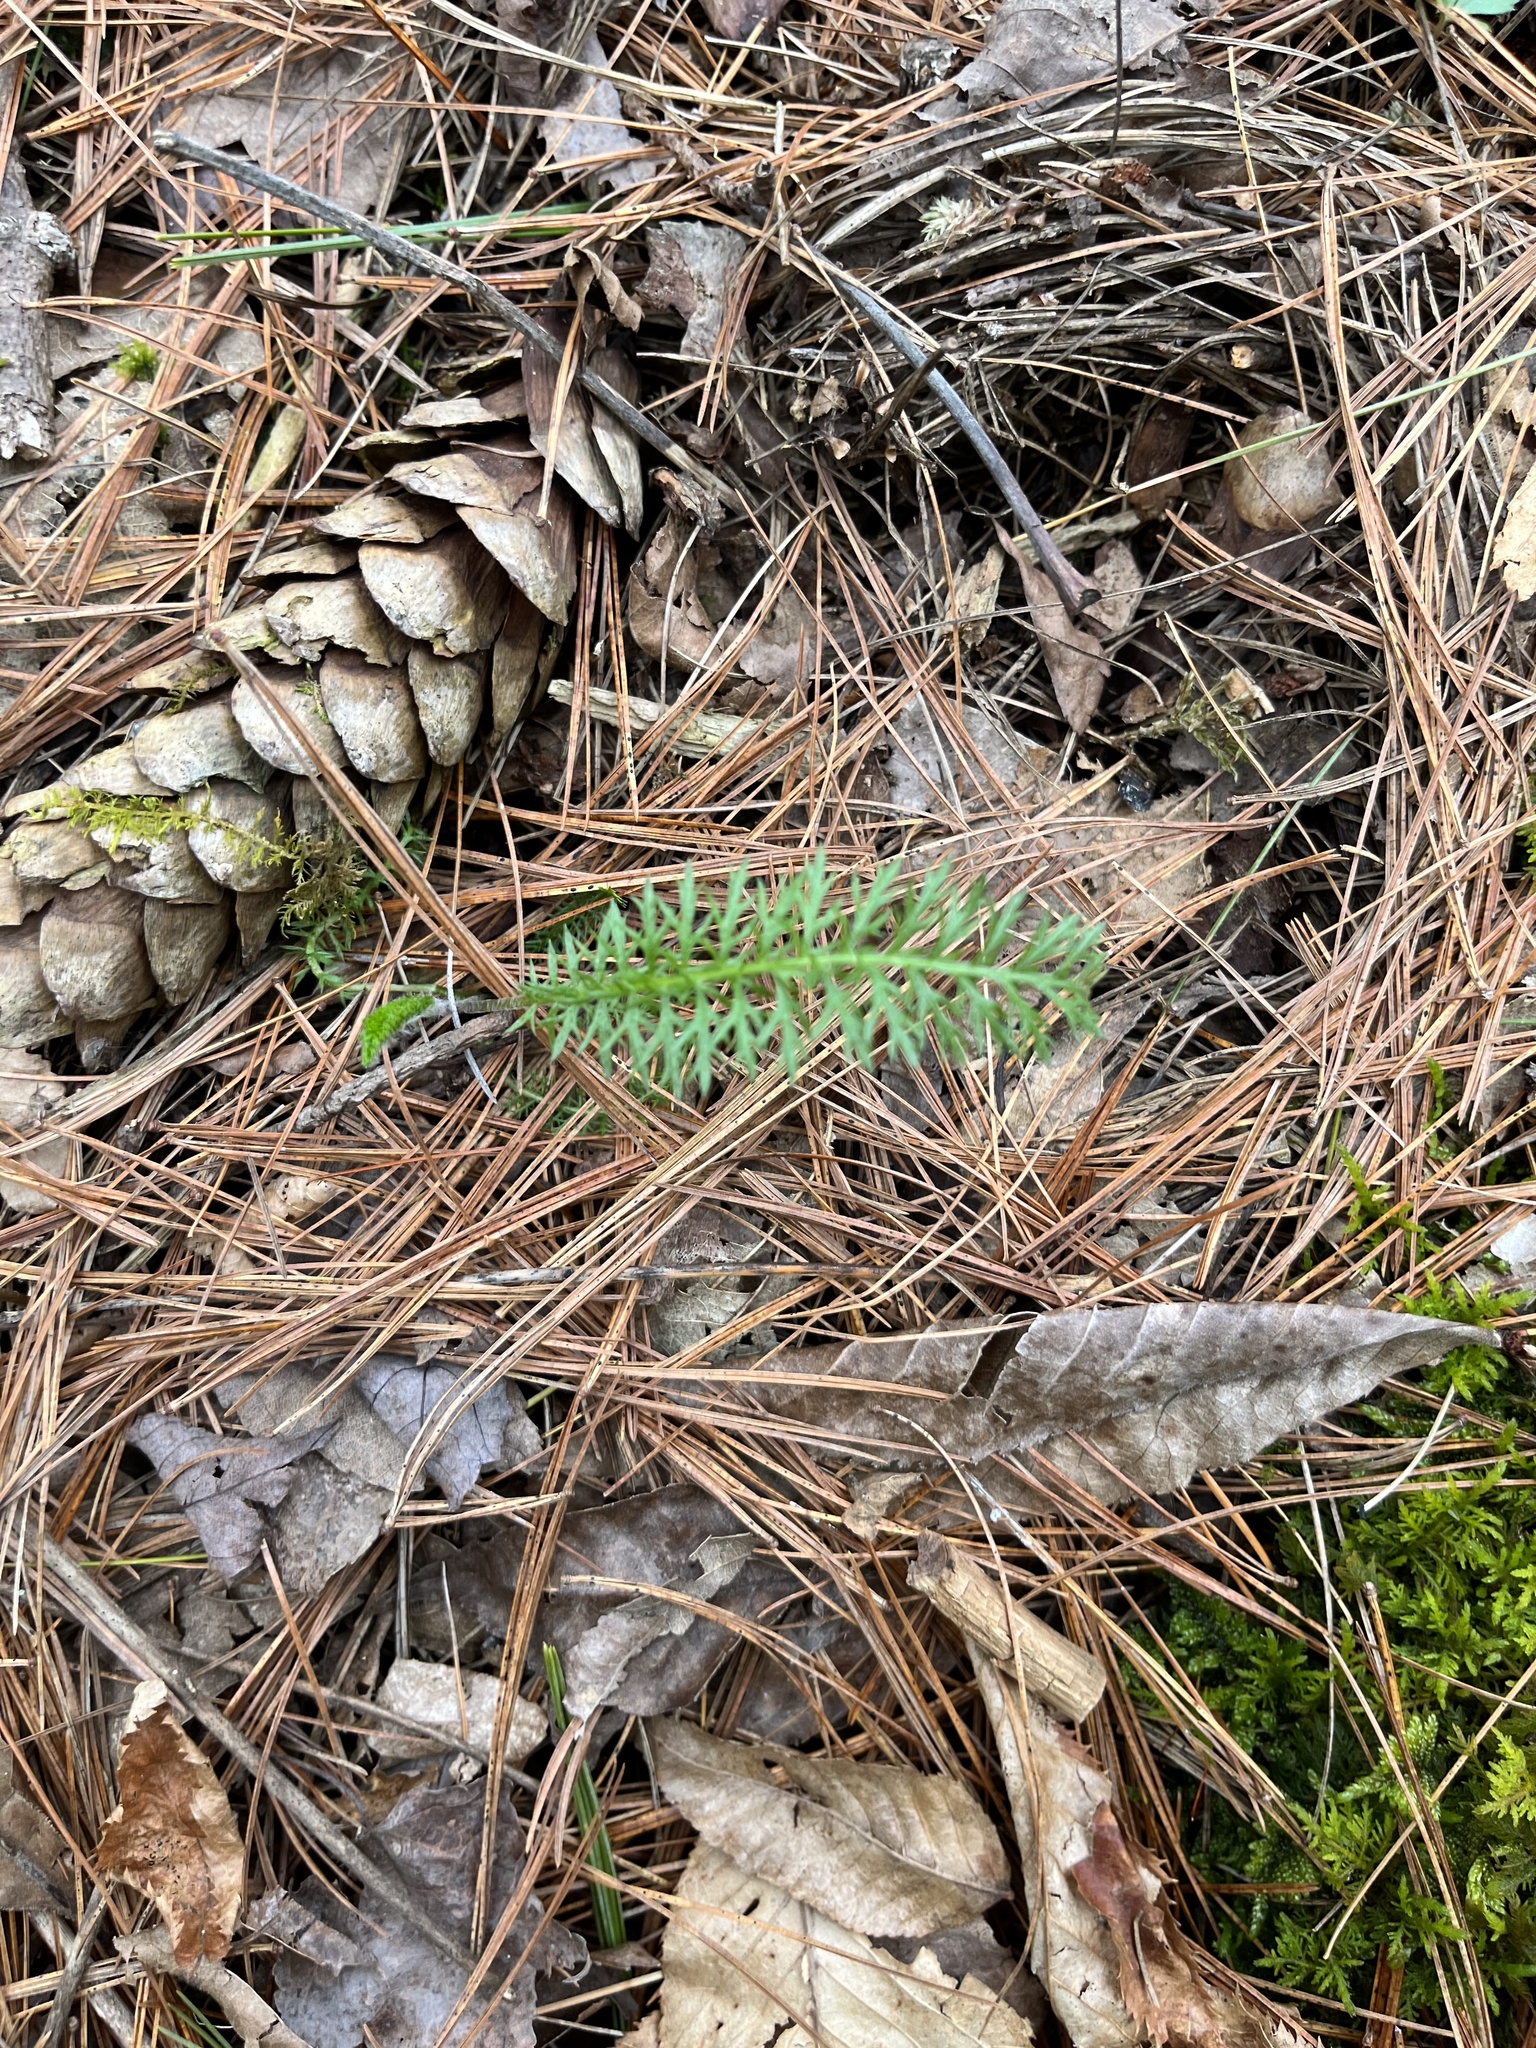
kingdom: Plantae
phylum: Tracheophyta
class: Magnoliopsida
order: Asterales
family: Asteraceae
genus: Achillea
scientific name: Achillea millefolium
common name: Yarrow
